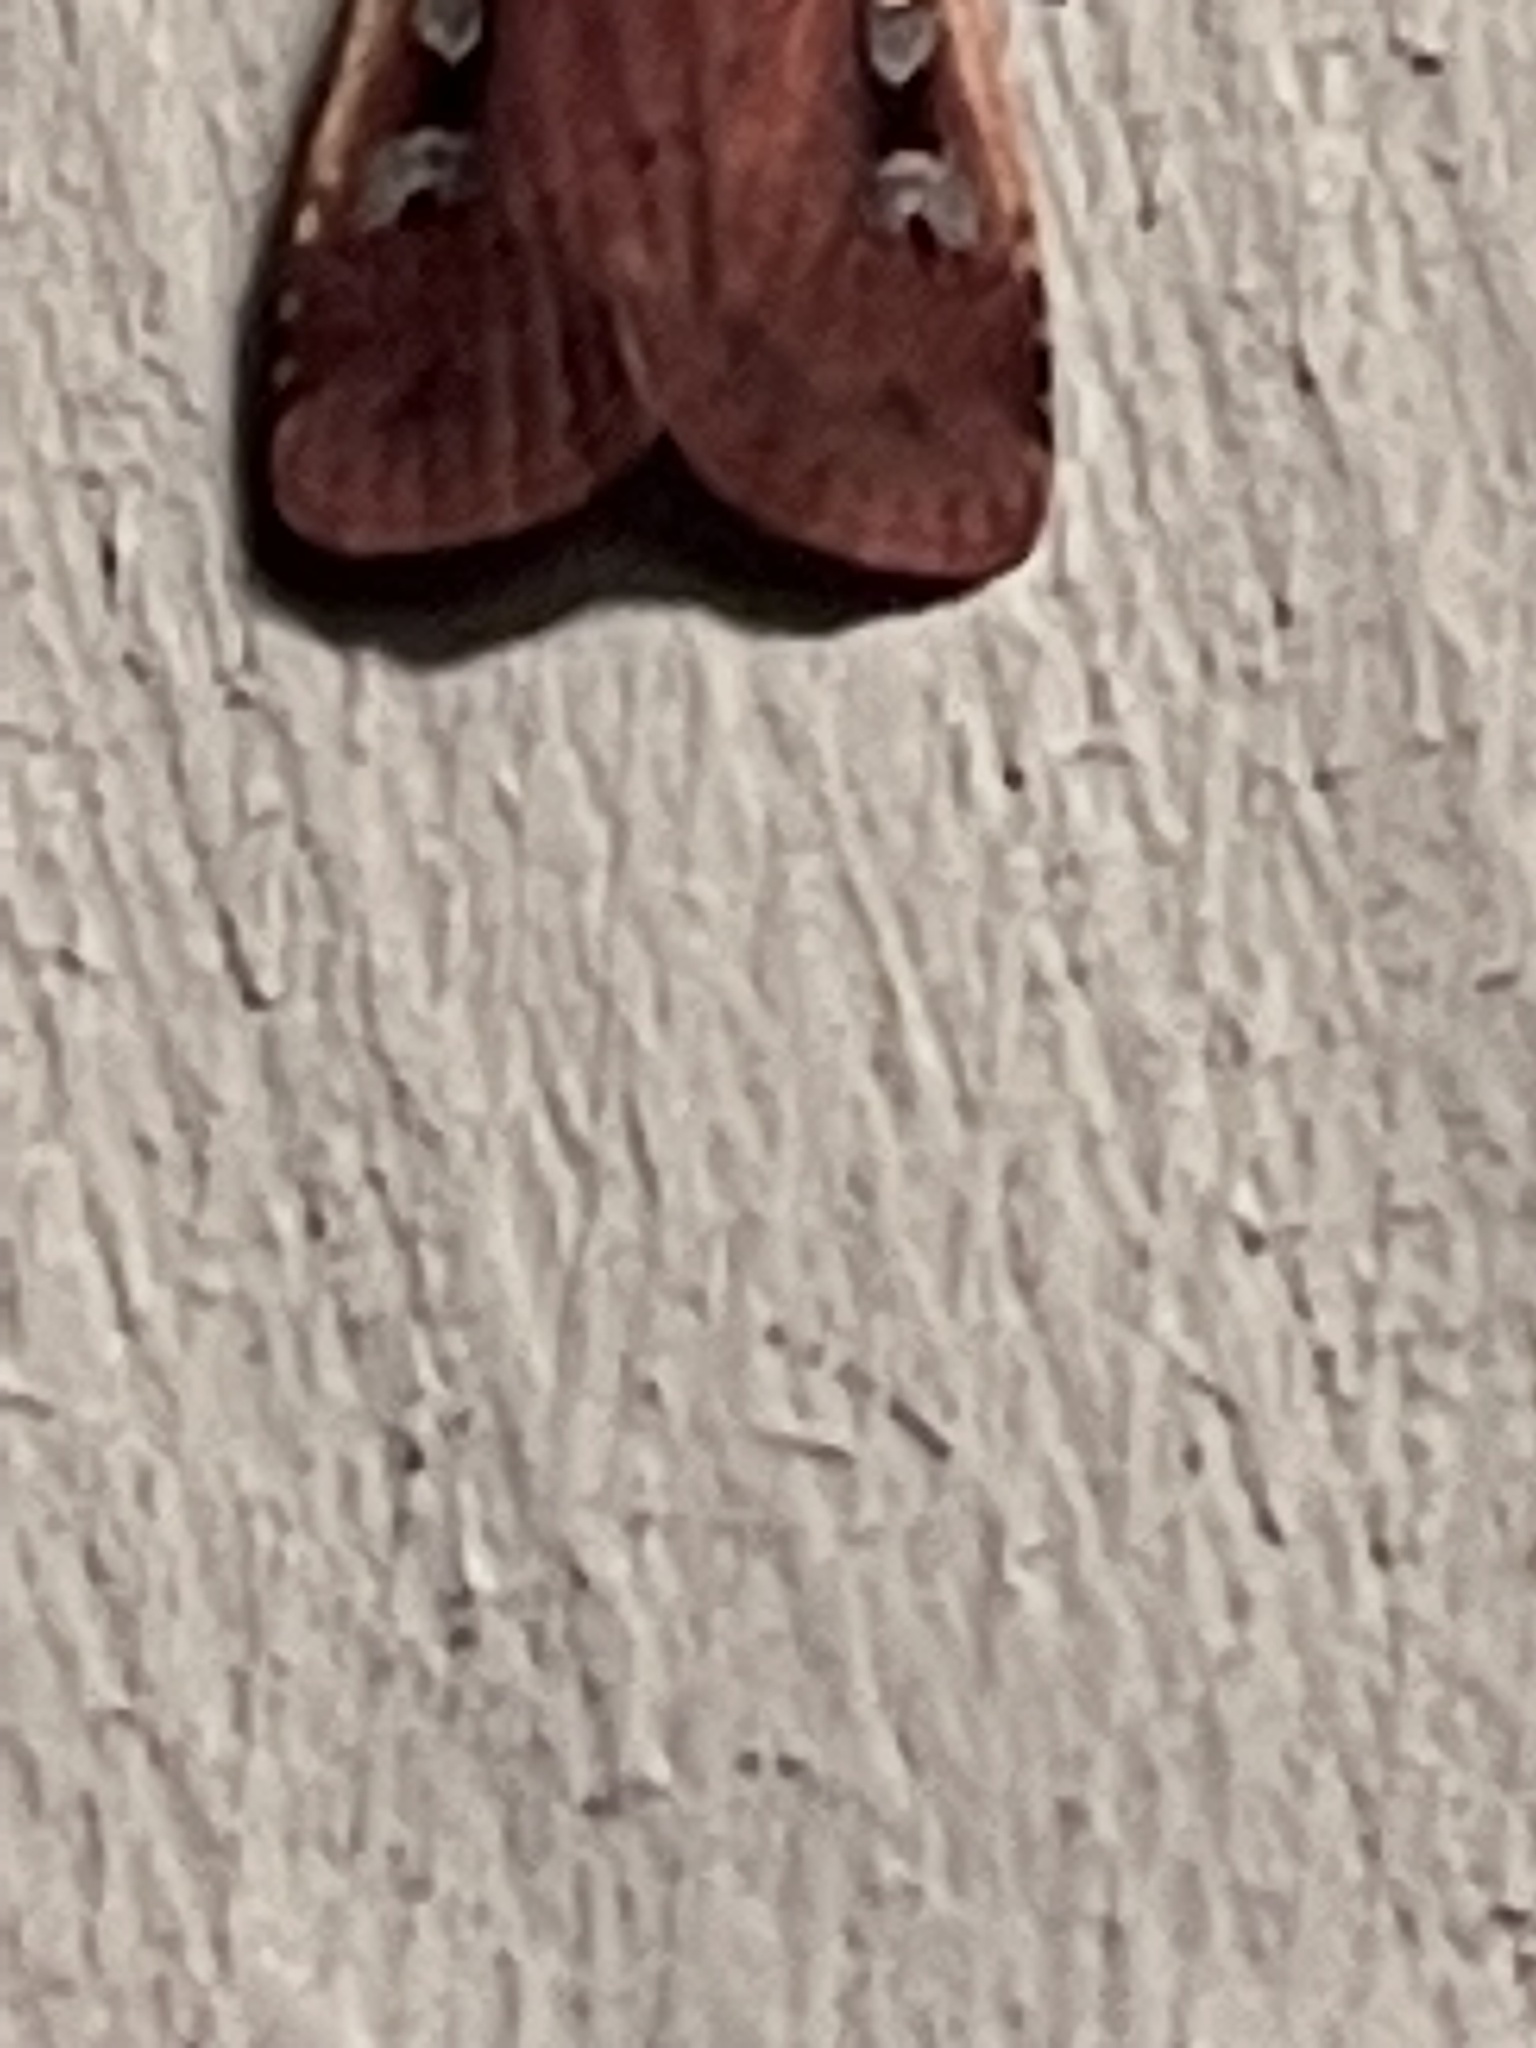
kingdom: Animalia
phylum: Arthropoda
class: Insecta
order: Lepidoptera
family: Noctuidae
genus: Ochropleura
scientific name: Ochropleura implecta
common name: Flame-shouldered dart
